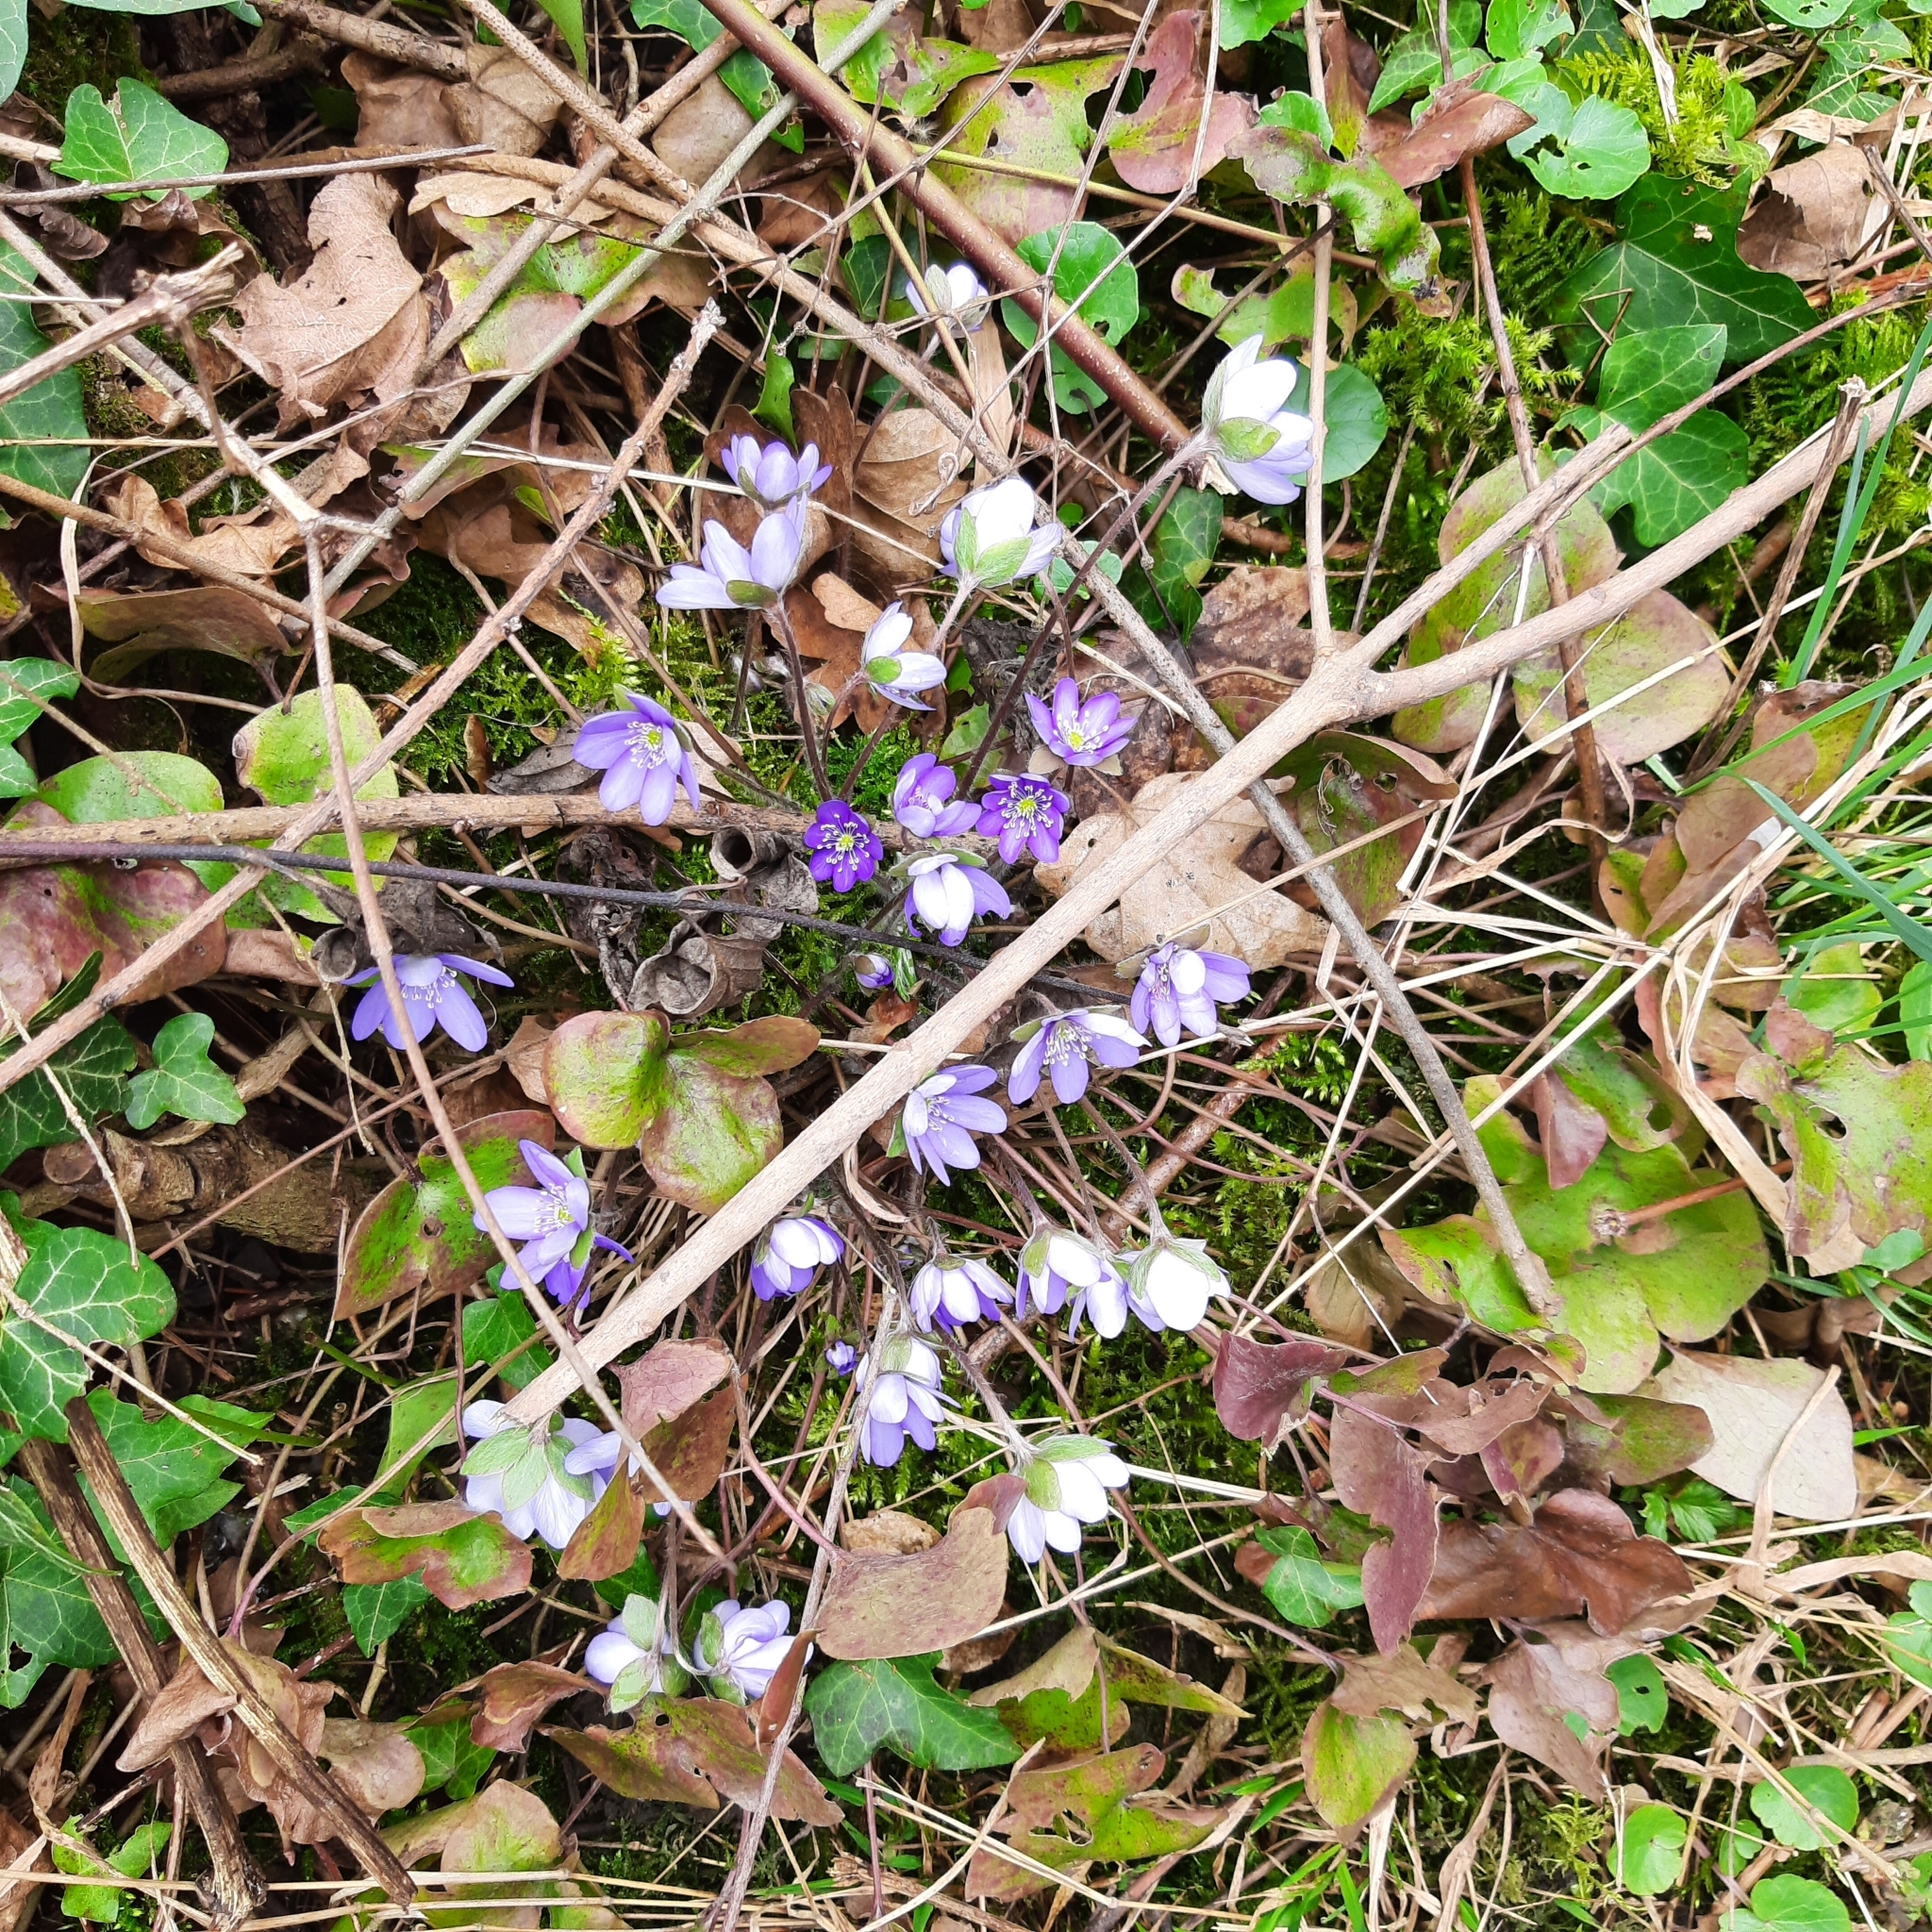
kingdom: Plantae
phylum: Tracheophyta
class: Magnoliopsida
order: Ranunculales
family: Ranunculaceae
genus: Hepatica
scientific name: Hepatica nobilis
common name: Liverleaf
